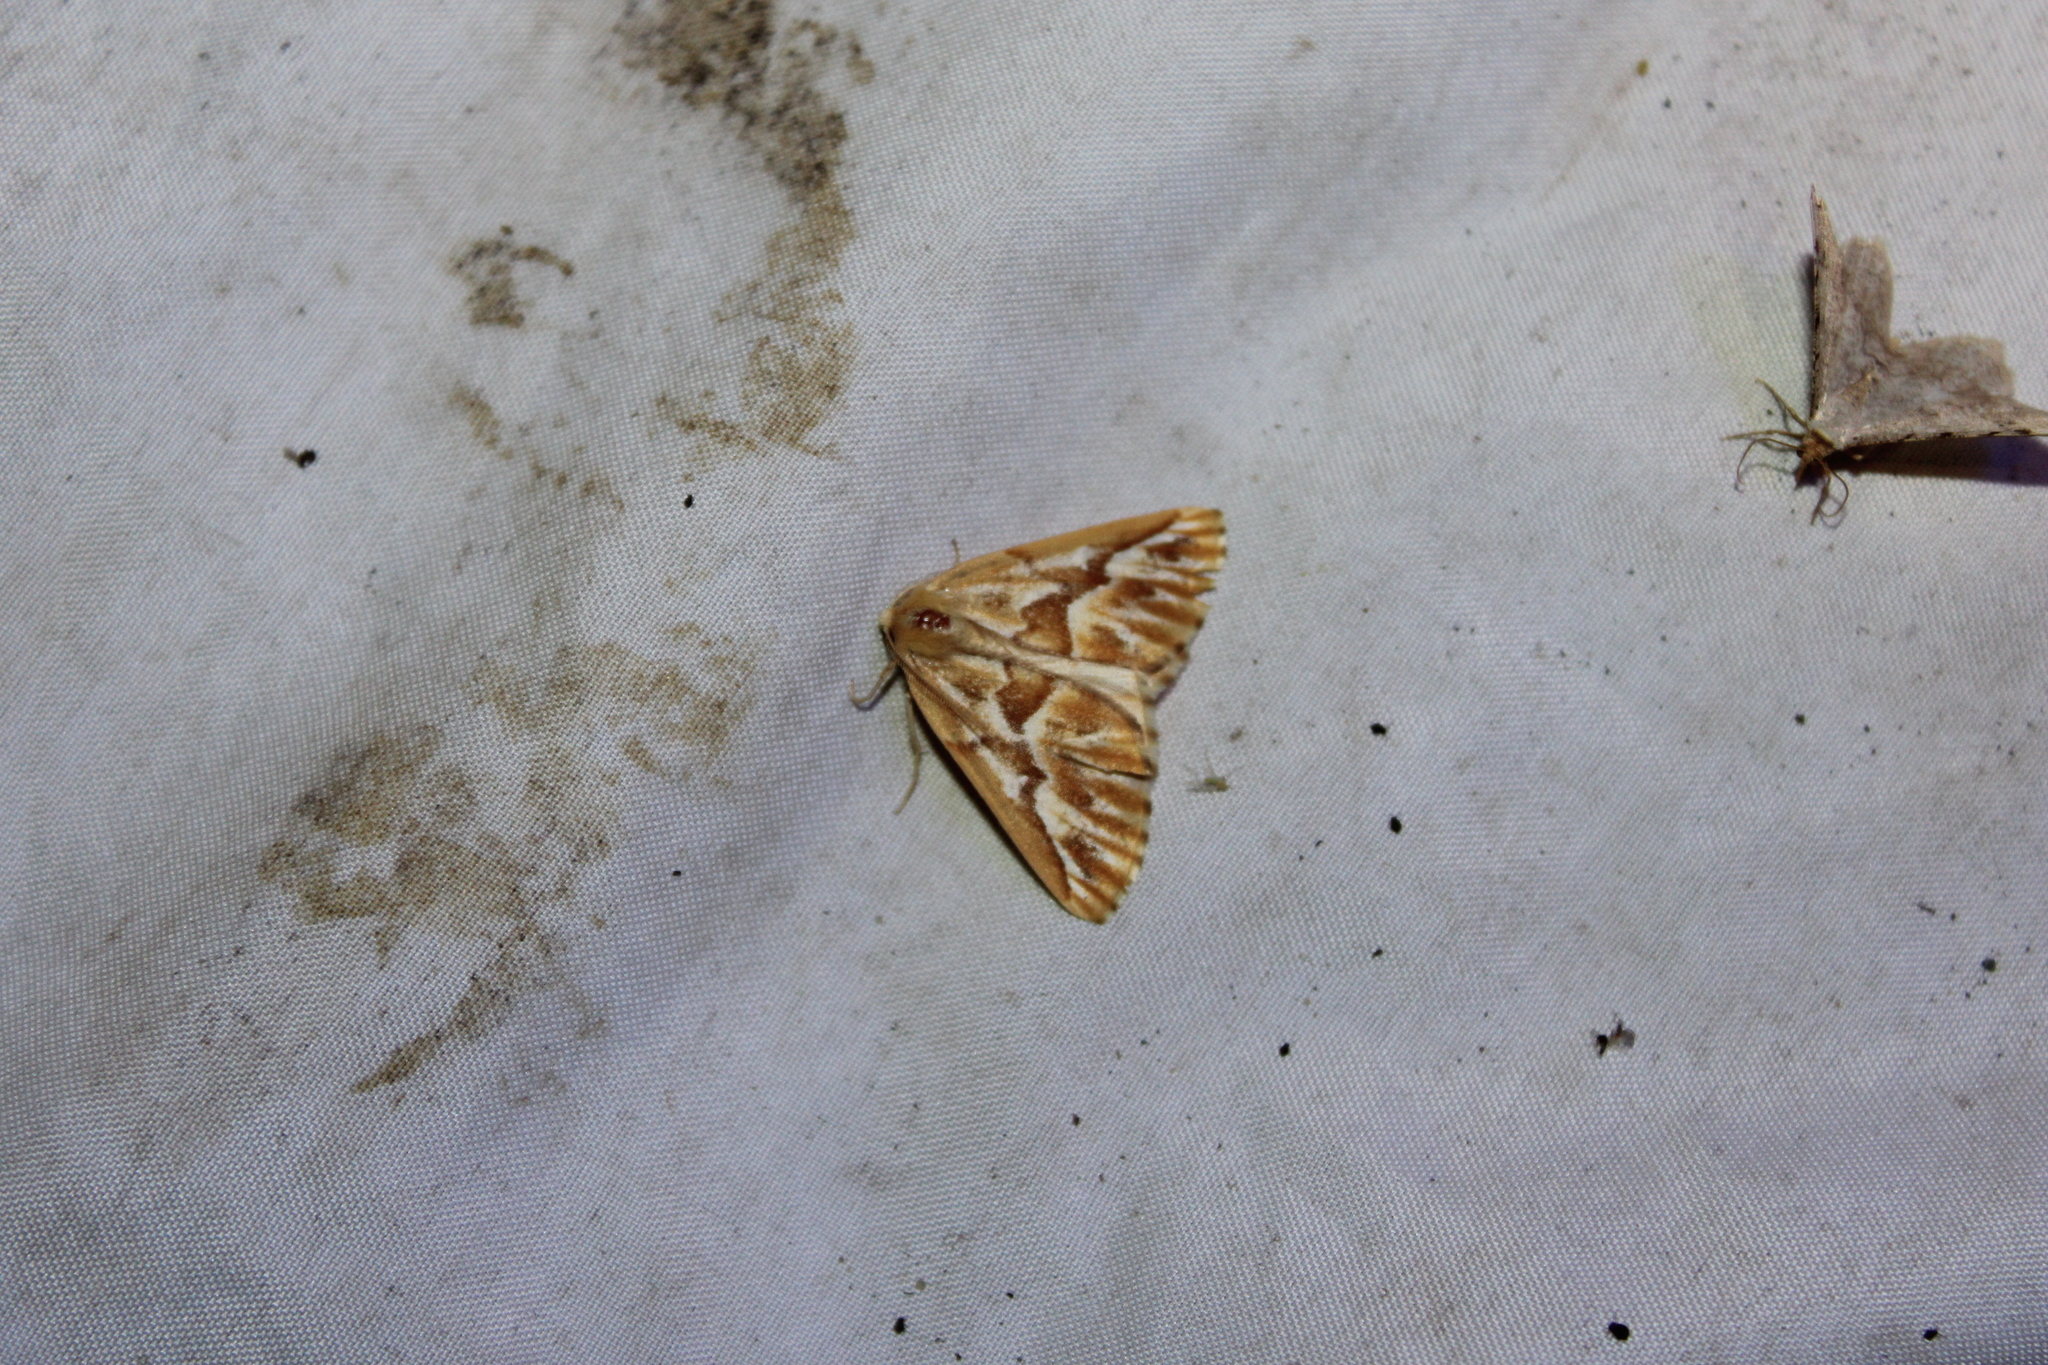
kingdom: Animalia
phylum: Arthropoda
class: Insecta
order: Lepidoptera
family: Geometridae
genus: Caripeta
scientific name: Caripeta piniata
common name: Northern pine looper moth
